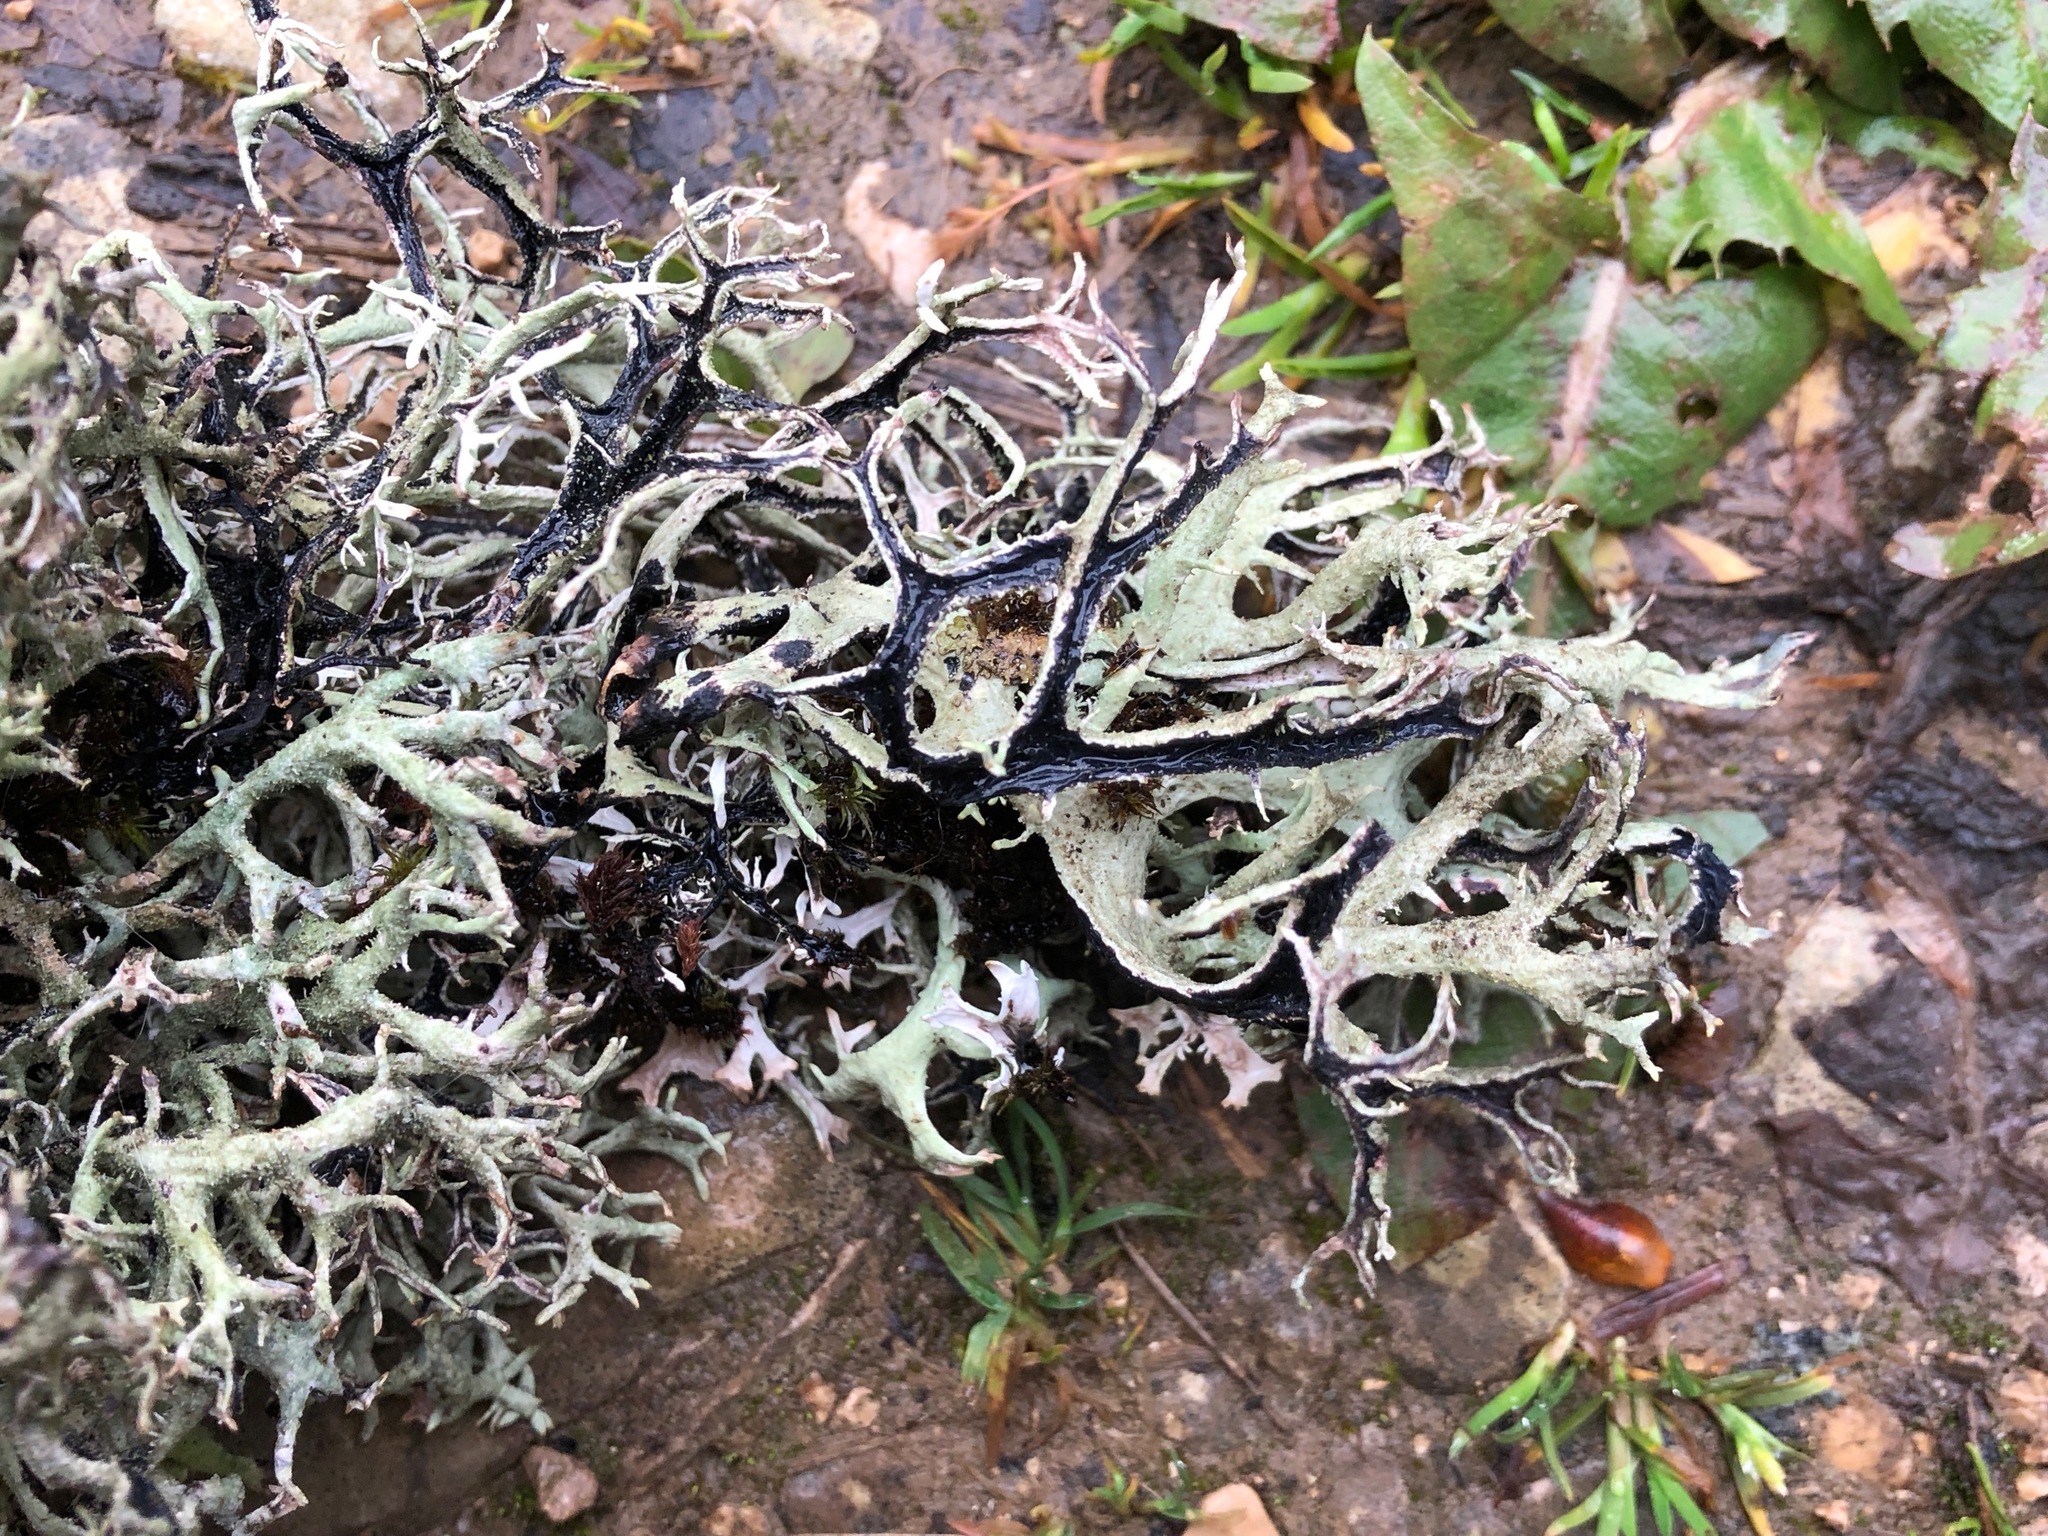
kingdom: Fungi
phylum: Ascomycota
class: Lecanoromycetes
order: Lecanorales
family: Parmeliaceae
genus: Pseudevernia
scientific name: Pseudevernia furfuracea
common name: Tree moss
